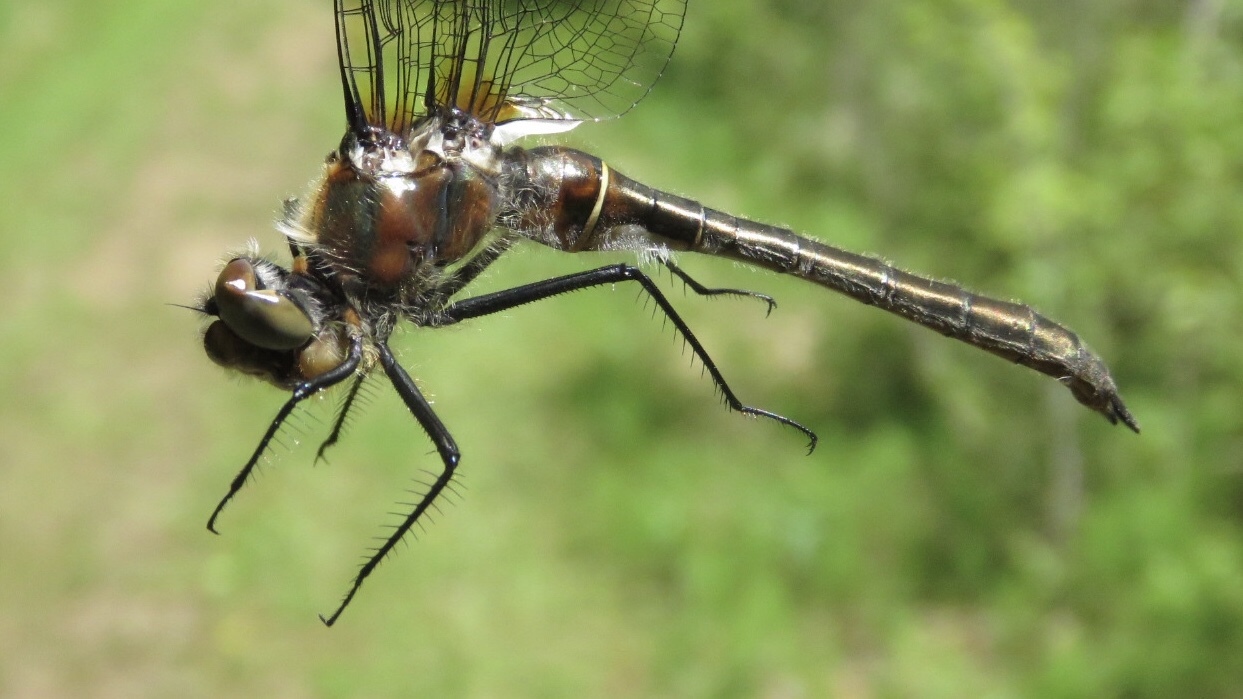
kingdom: Animalia
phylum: Arthropoda
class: Insecta
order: Odonata
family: Corduliidae
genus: Cordulia
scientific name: Cordulia shurtleffii
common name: American emerald
